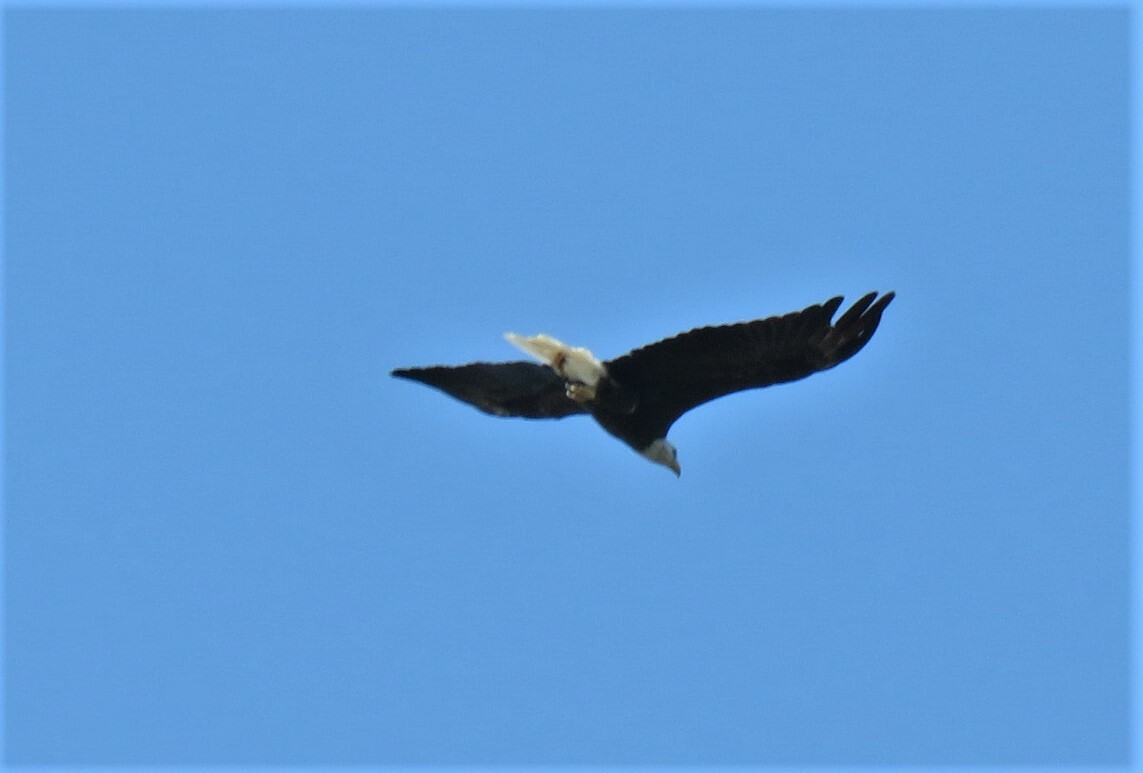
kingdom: Animalia
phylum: Chordata
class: Aves
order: Accipitriformes
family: Accipitridae
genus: Haliaeetus
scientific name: Haliaeetus leucocephalus
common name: Bald eagle
